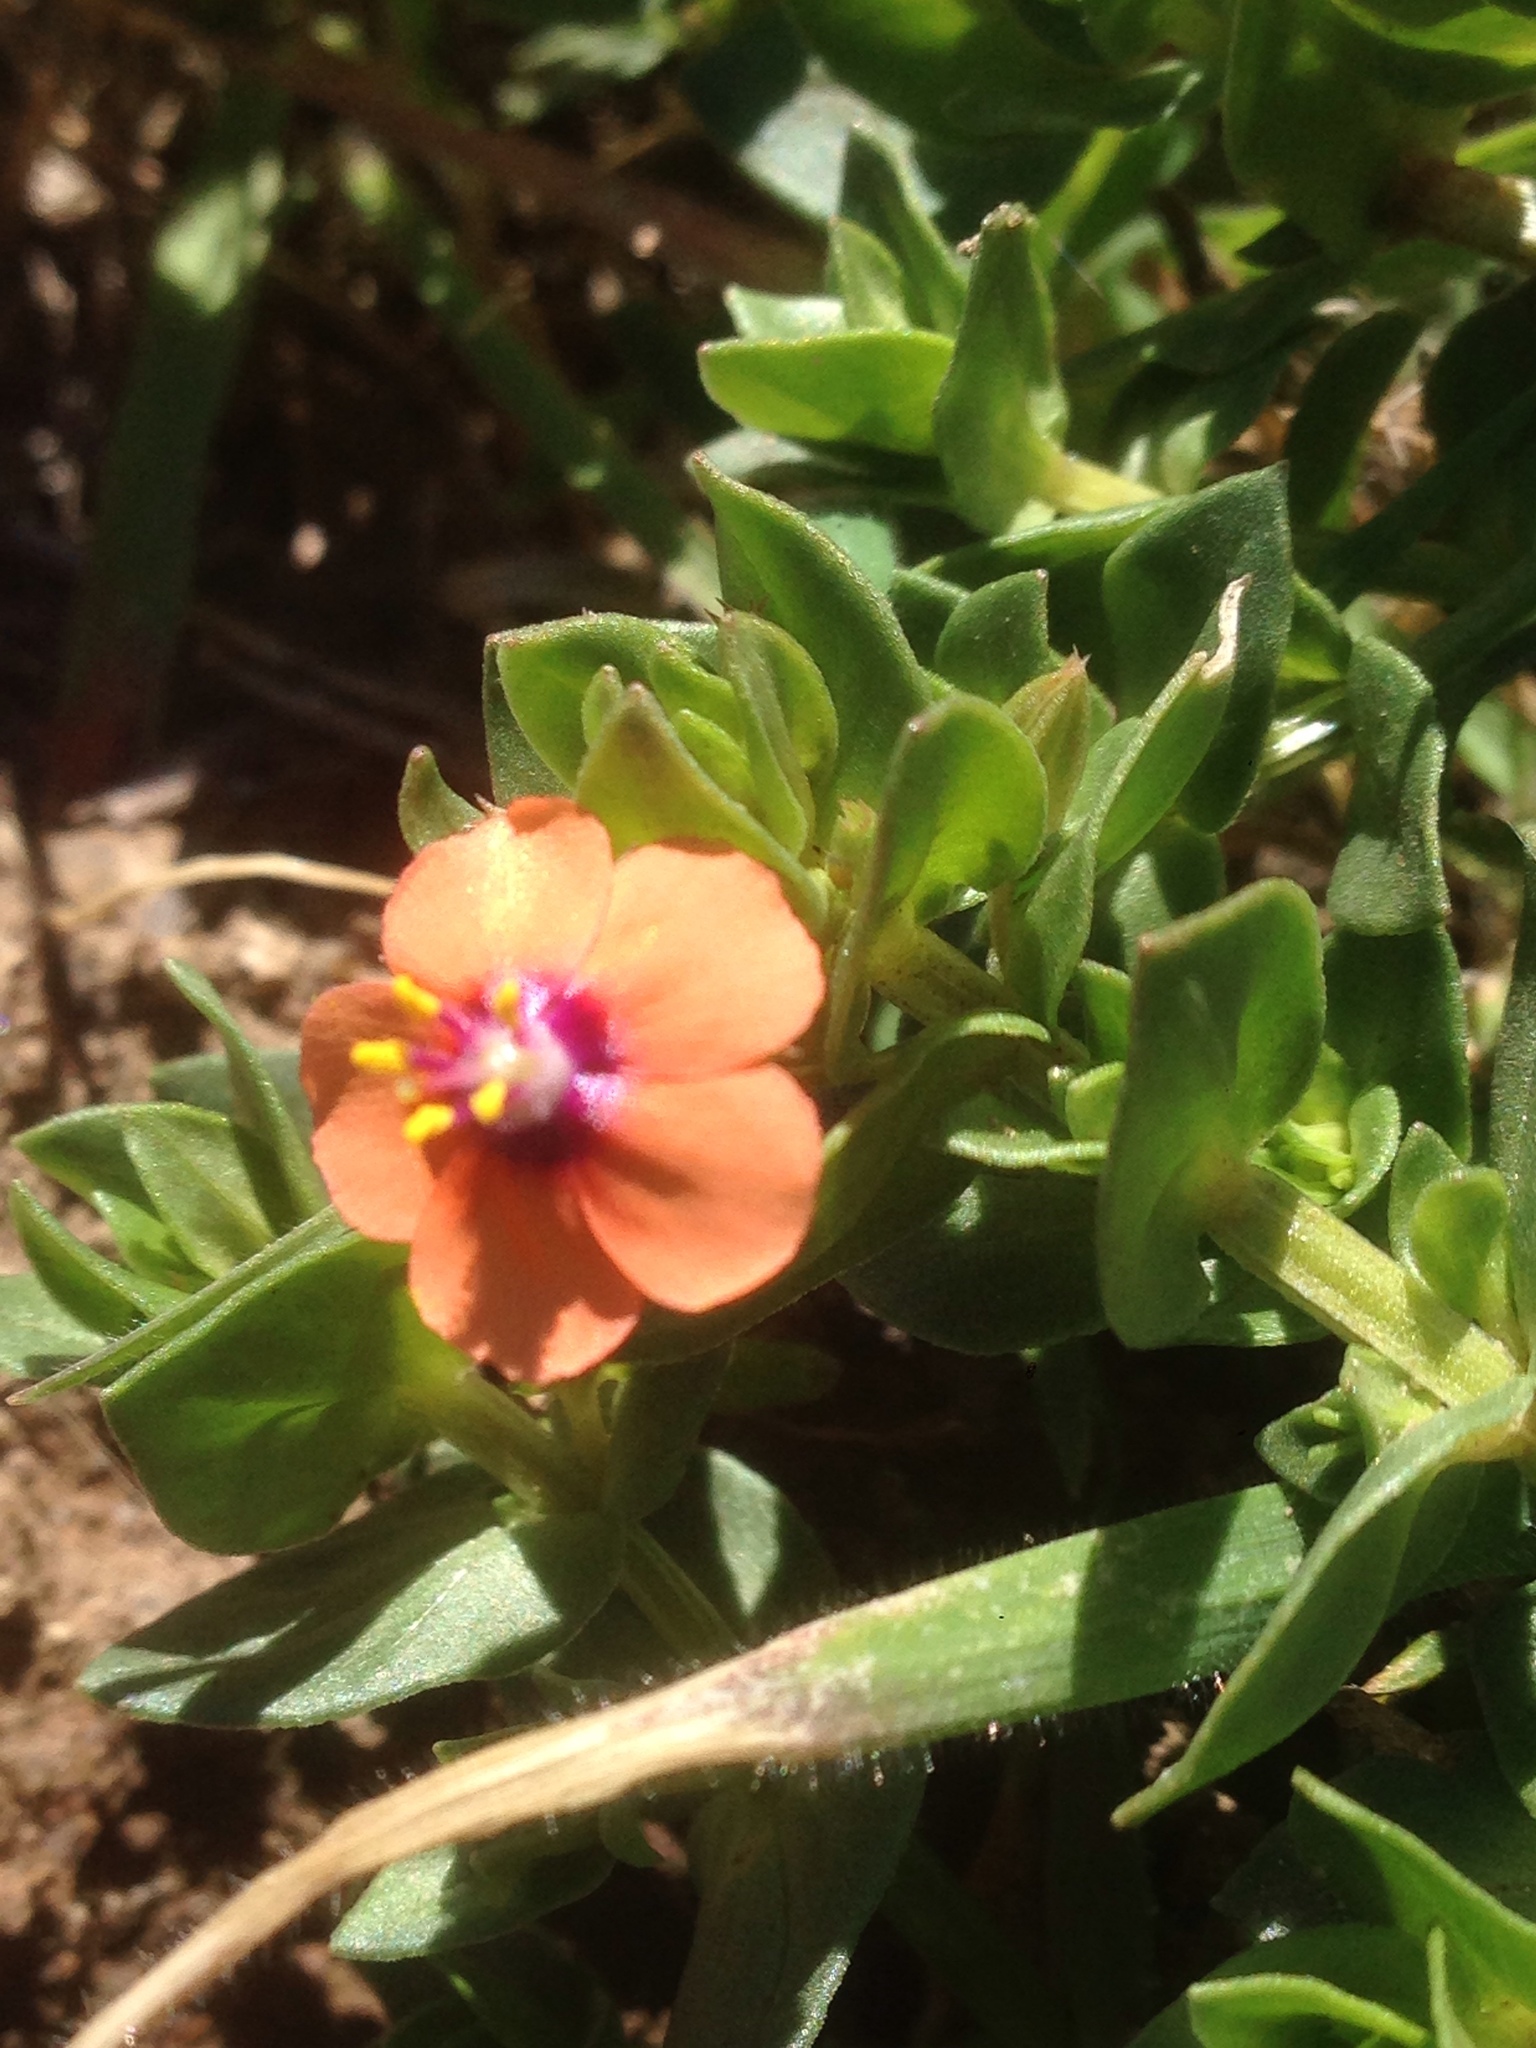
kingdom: Plantae
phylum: Tracheophyta
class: Magnoliopsida
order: Ericales
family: Primulaceae
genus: Lysimachia
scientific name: Lysimachia arvensis
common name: Scarlet pimpernel
